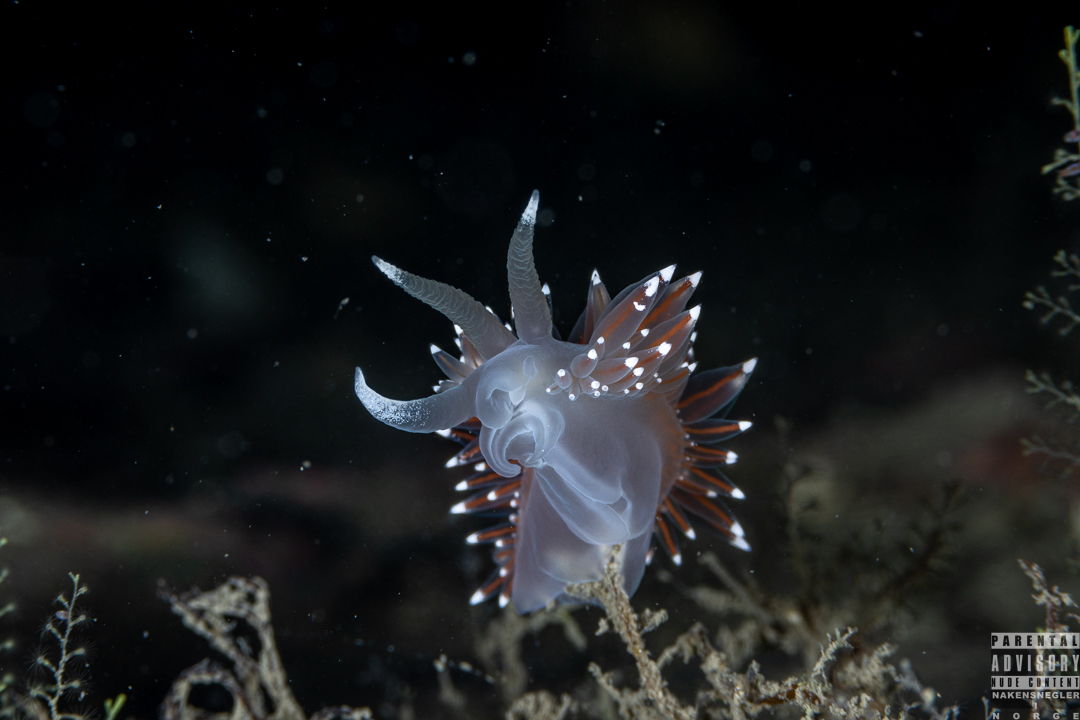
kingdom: Animalia
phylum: Mollusca
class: Gastropoda
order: Nudibranchia
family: Coryphellidae
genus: Coryphella
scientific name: Coryphella nobilis
